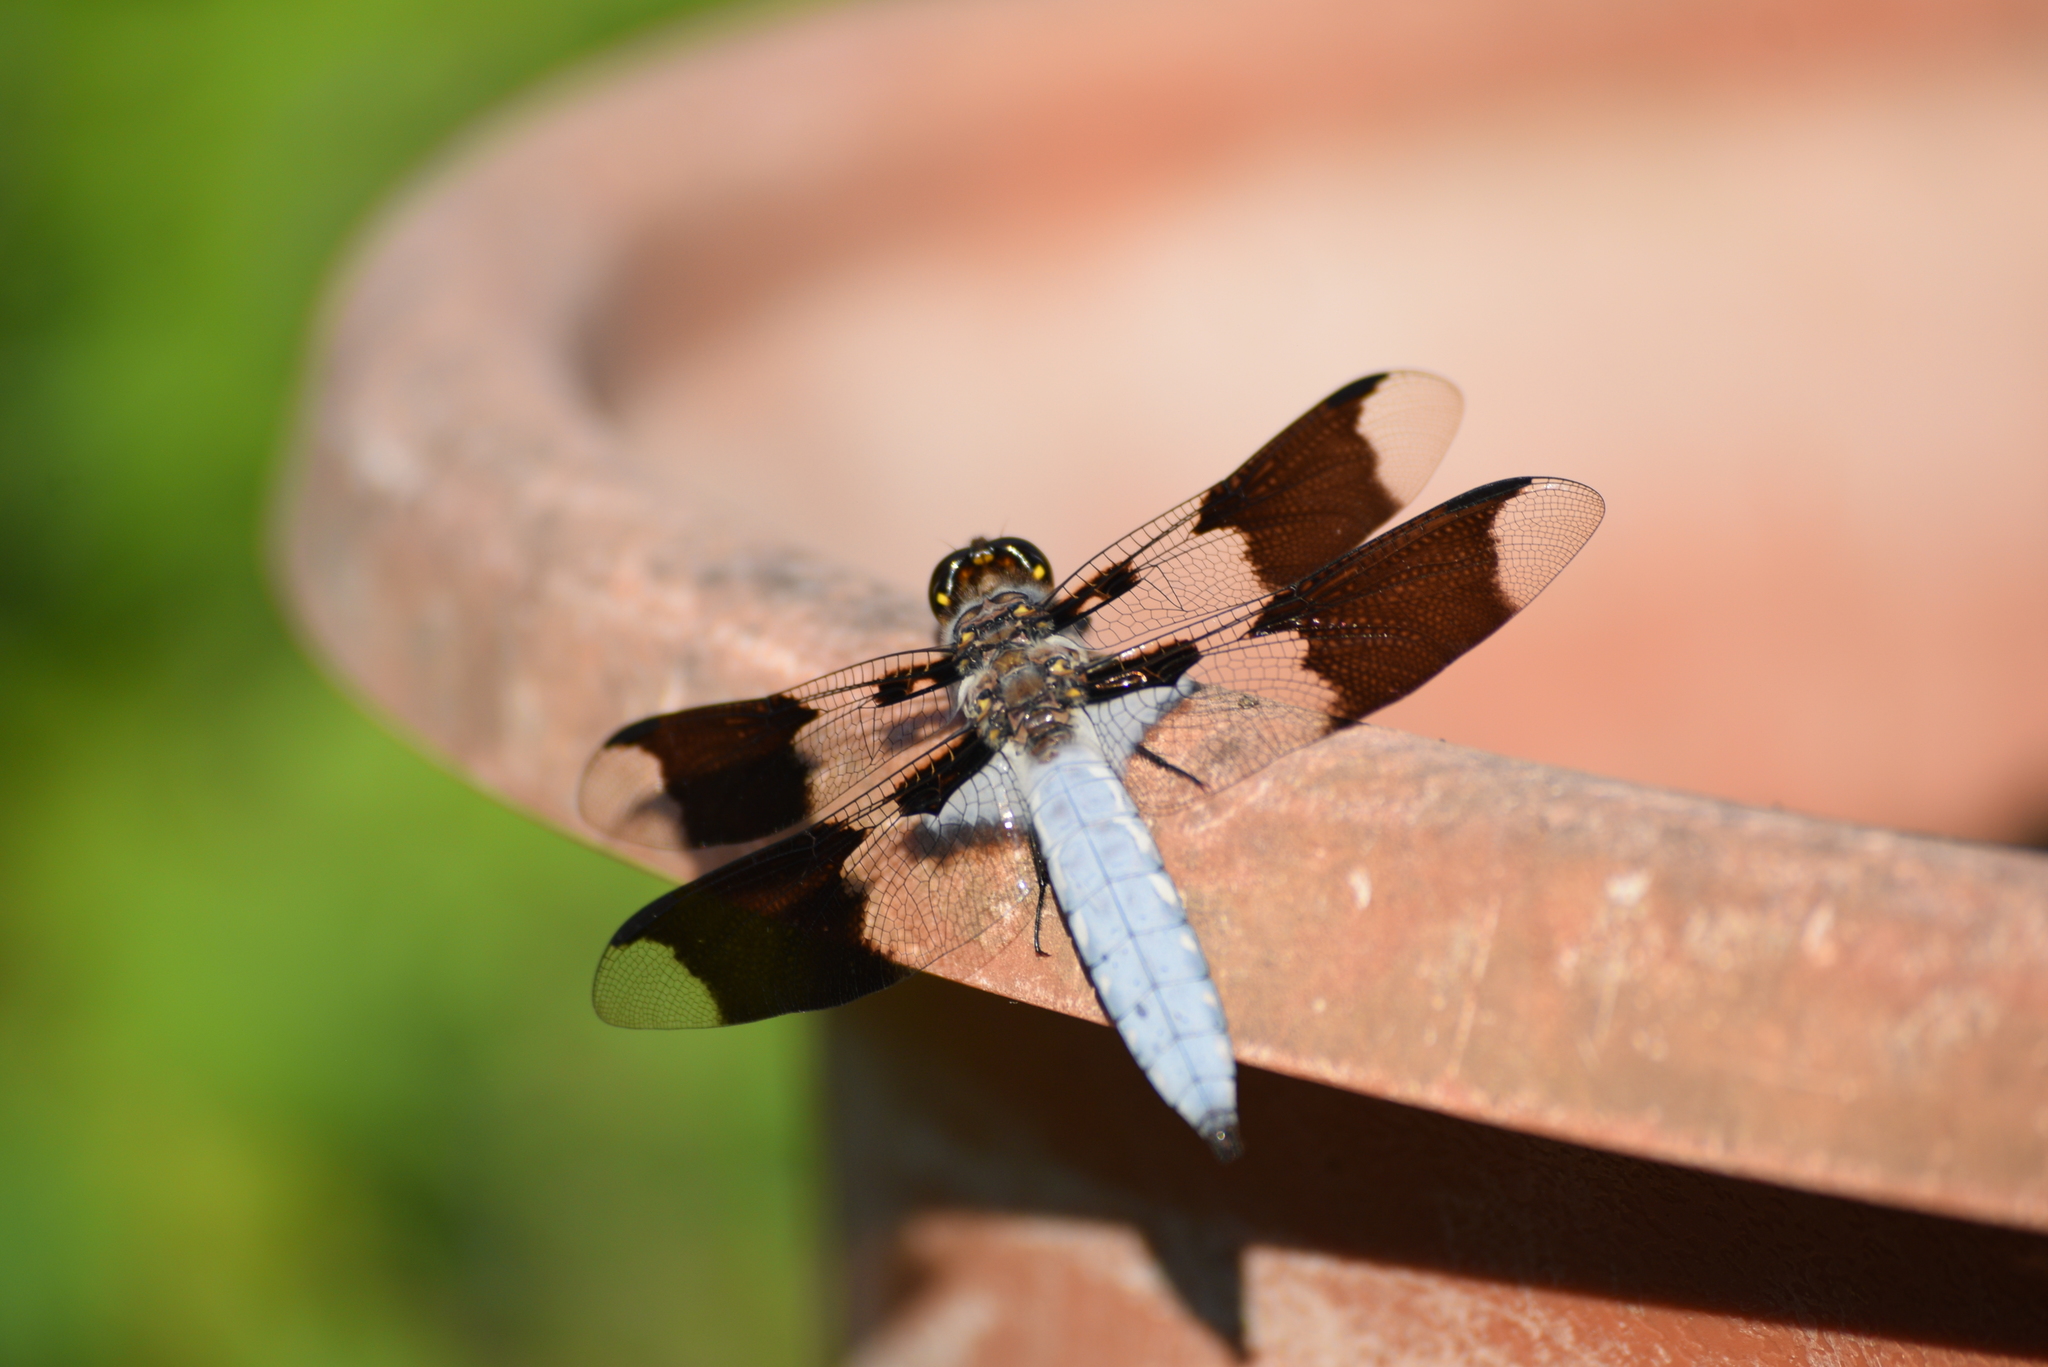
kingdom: Animalia
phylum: Arthropoda
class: Insecta
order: Odonata
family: Libellulidae
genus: Plathemis
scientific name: Plathemis lydia
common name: Common whitetail
